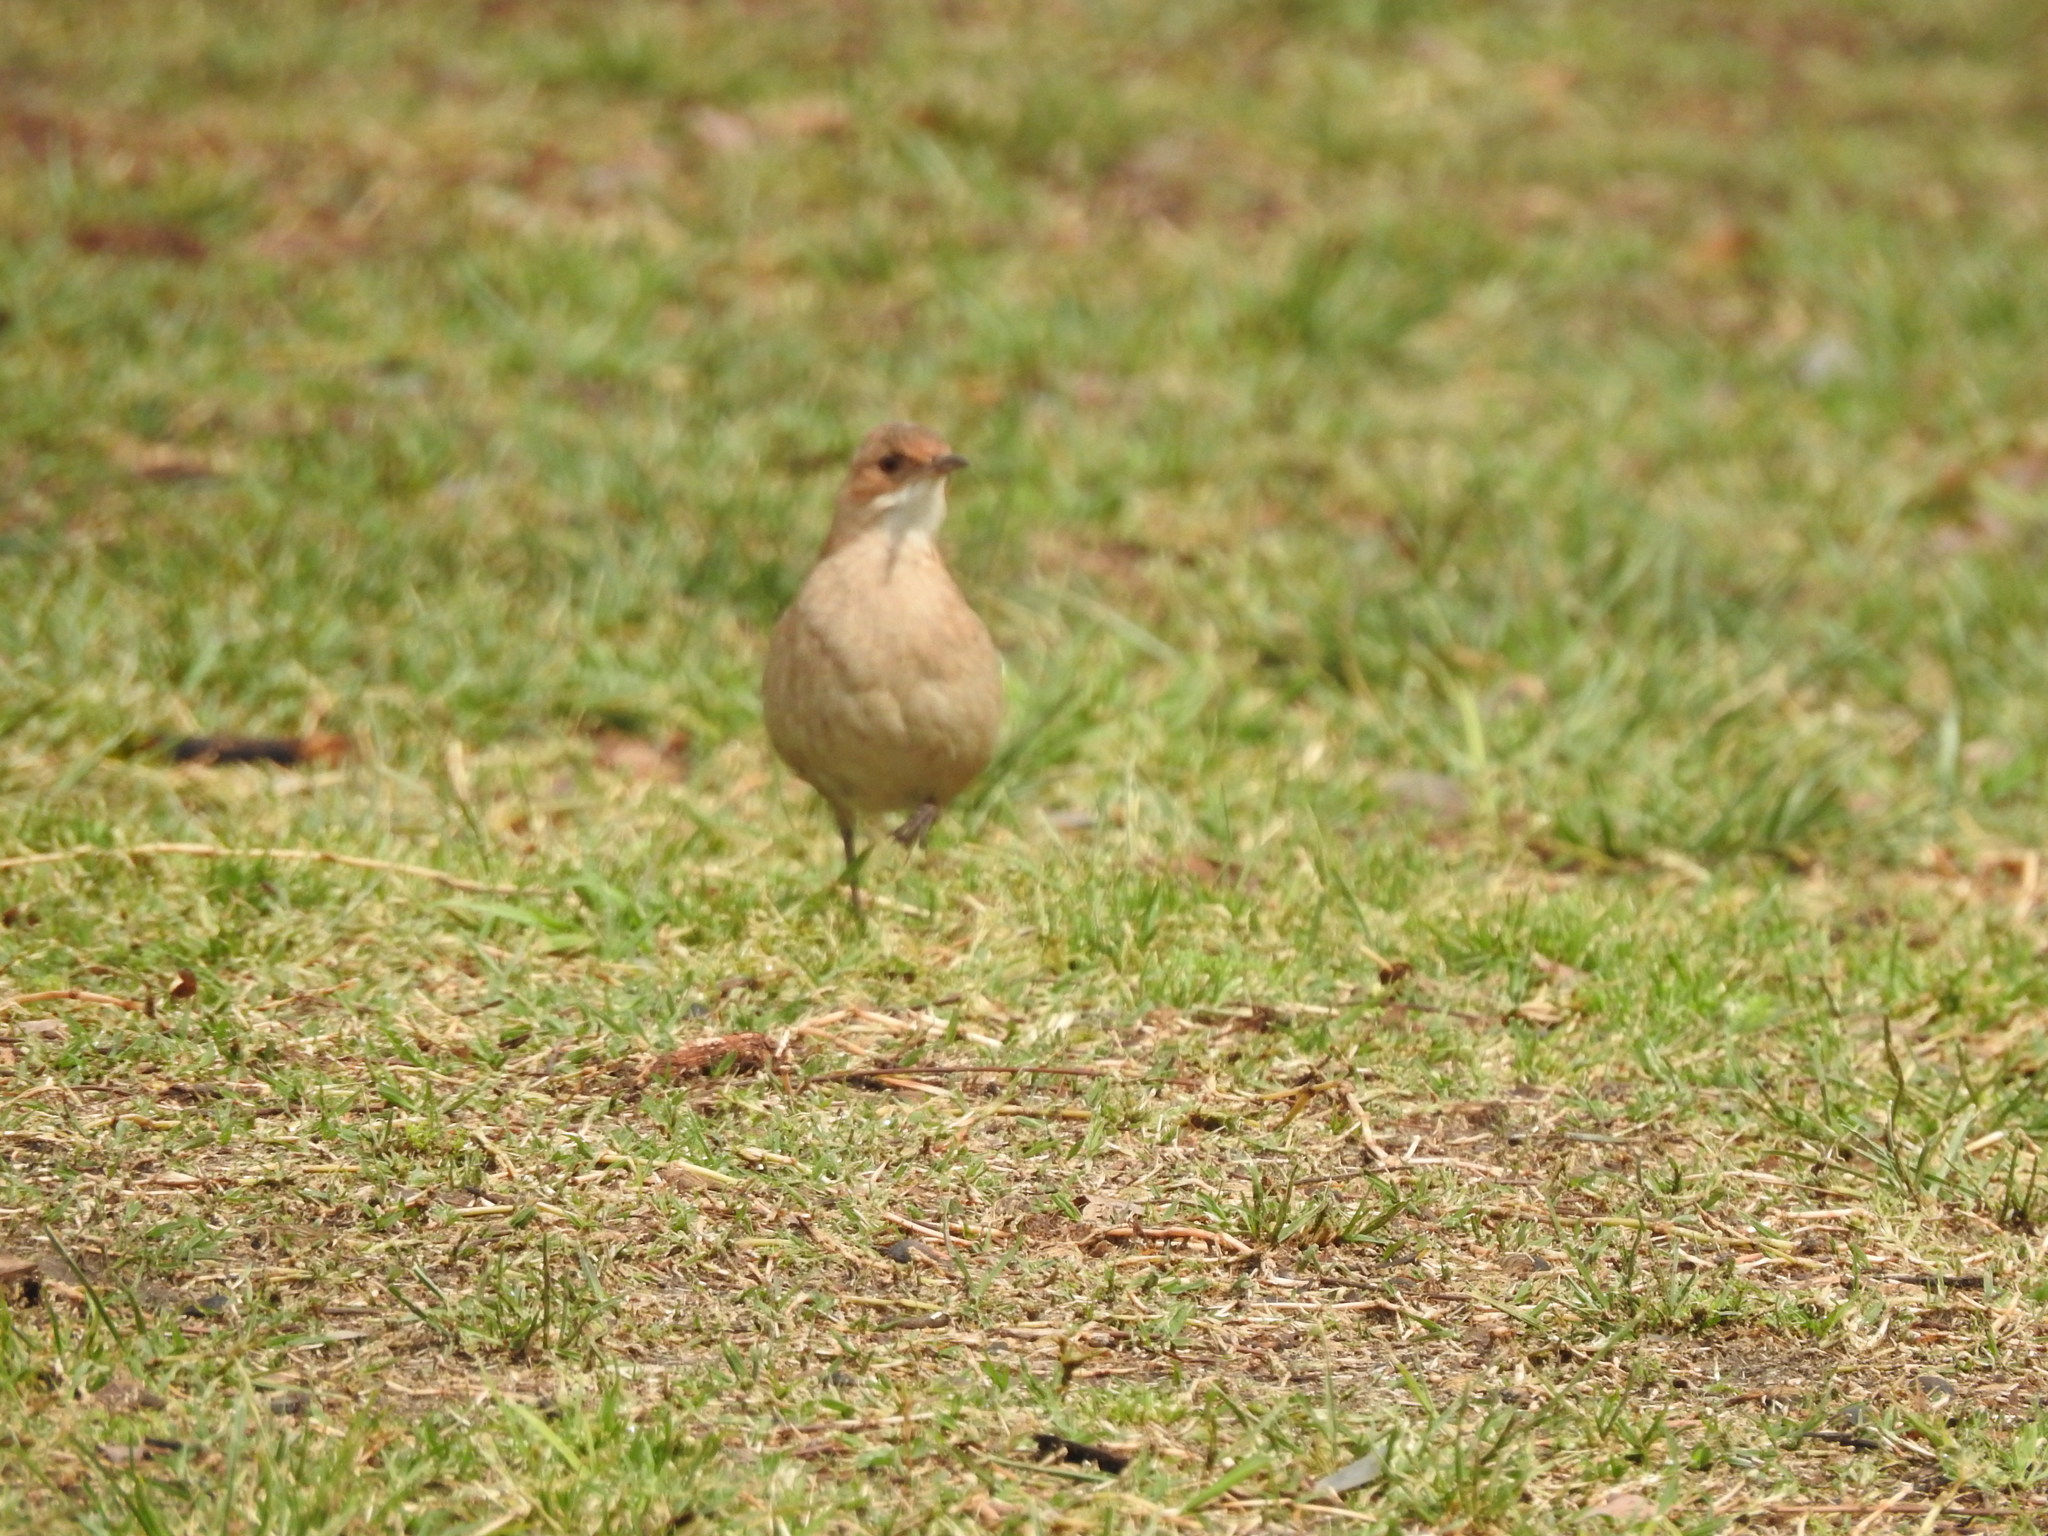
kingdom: Animalia
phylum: Chordata
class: Aves
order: Passeriformes
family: Furnariidae
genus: Furnarius
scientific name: Furnarius rufus
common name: Rufous hornero
